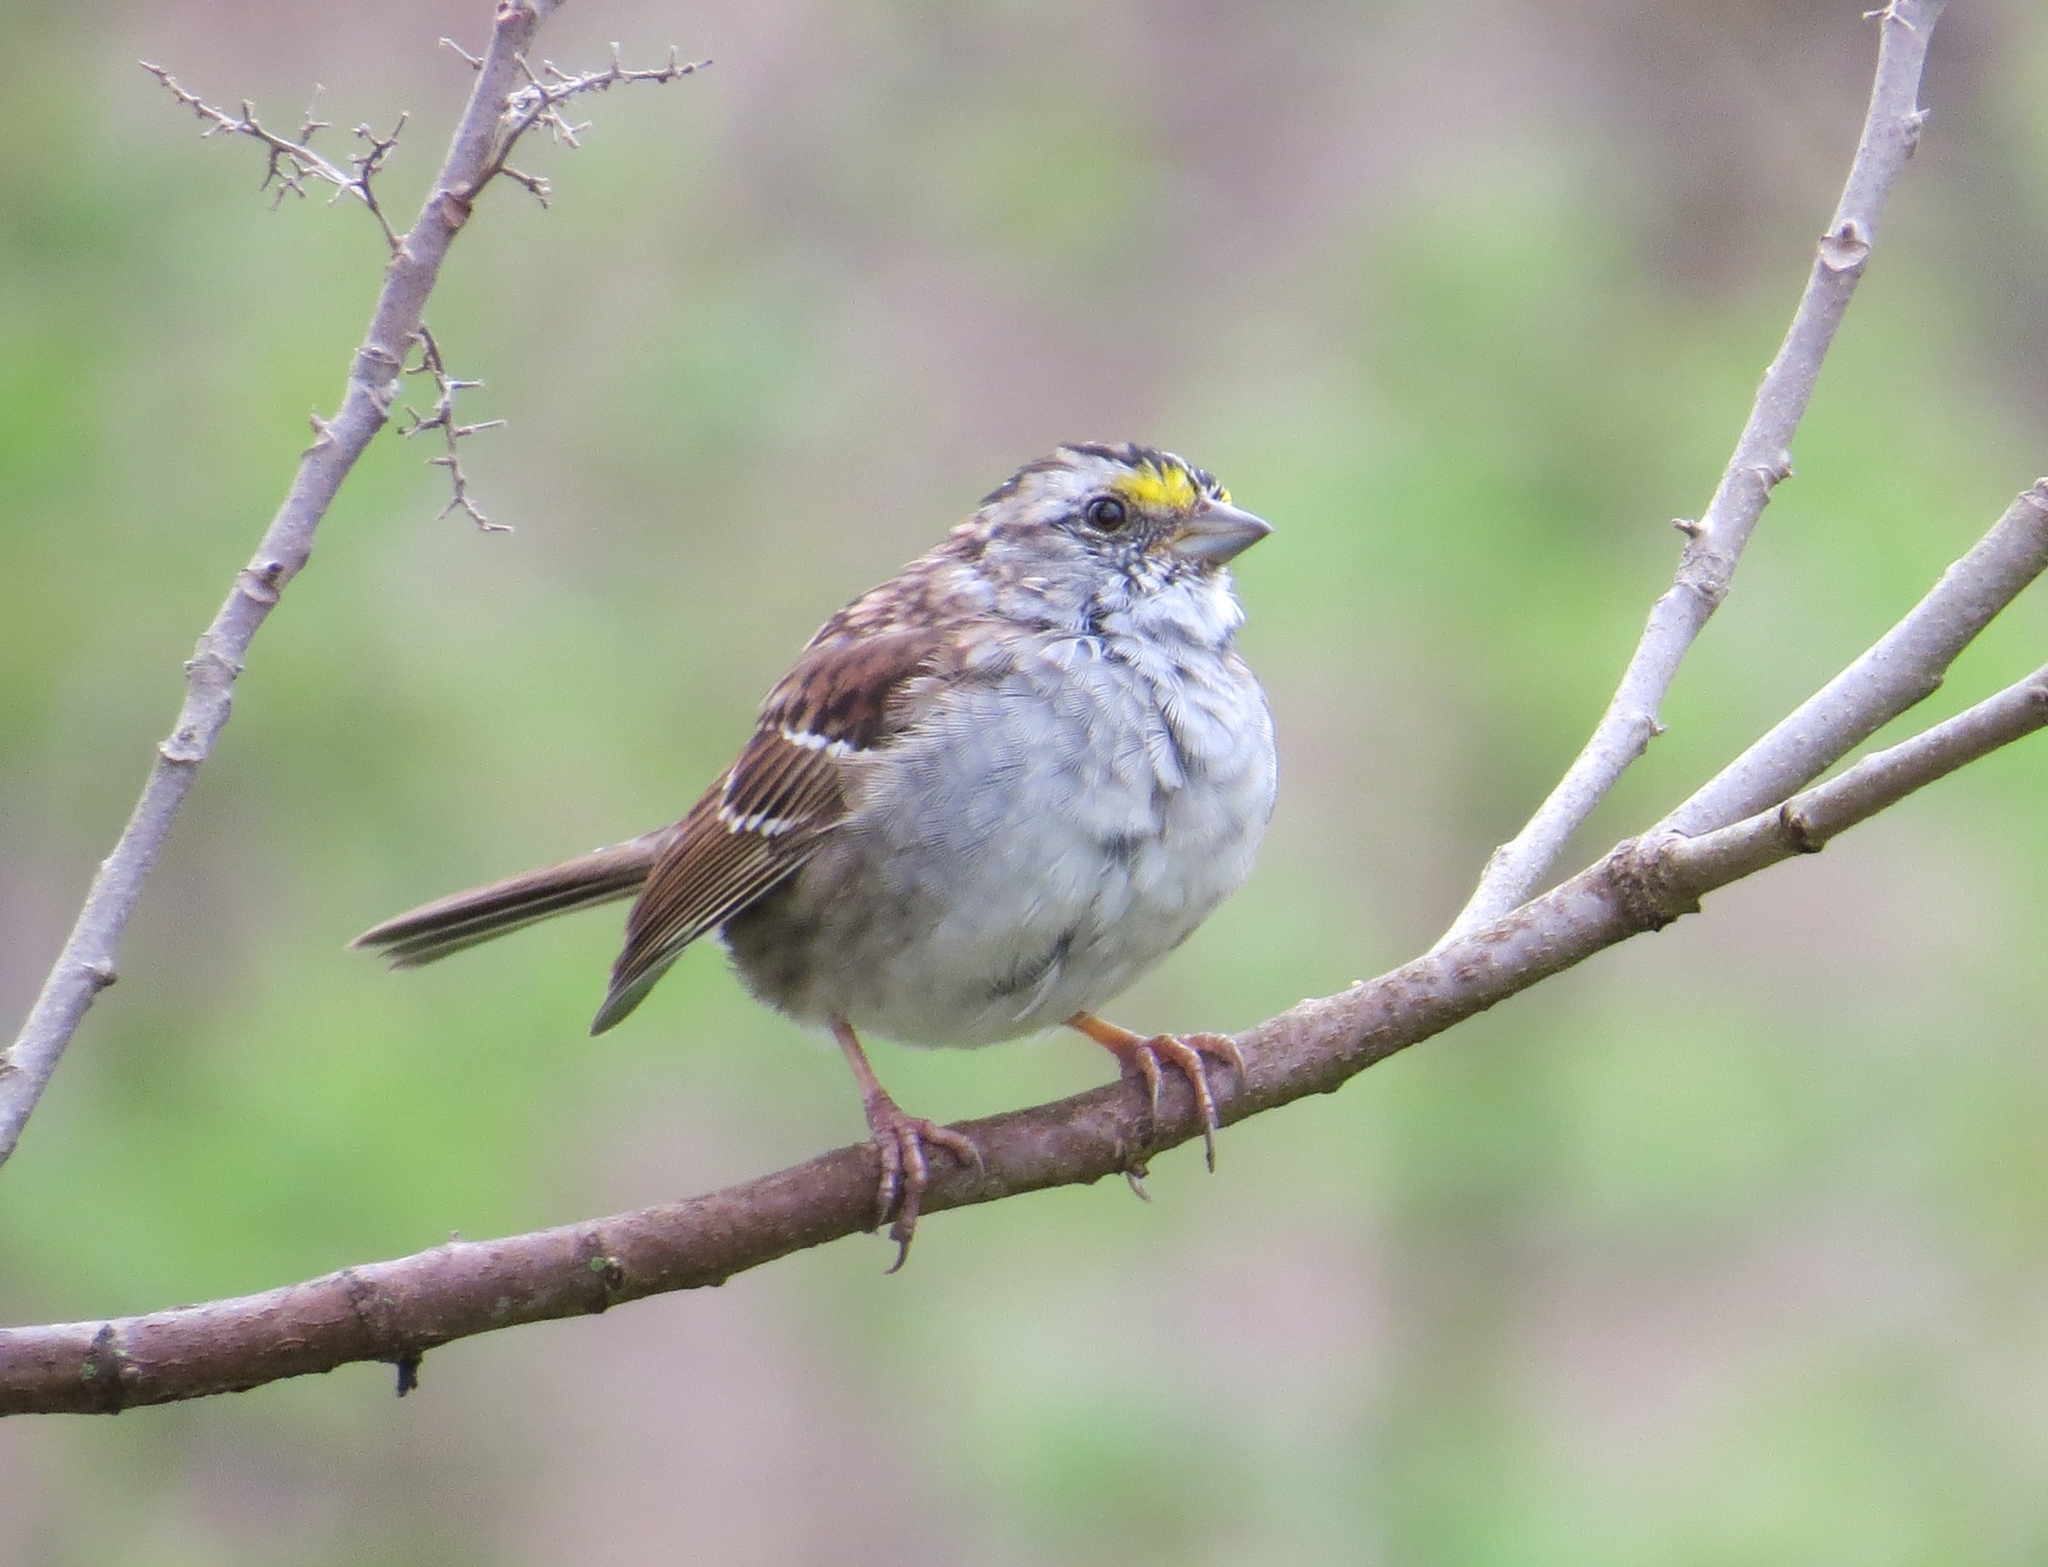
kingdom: Animalia
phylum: Chordata
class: Aves
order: Passeriformes
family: Passerellidae
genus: Zonotrichia
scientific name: Zonotrichia albicollis
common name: White-throated sparrow
